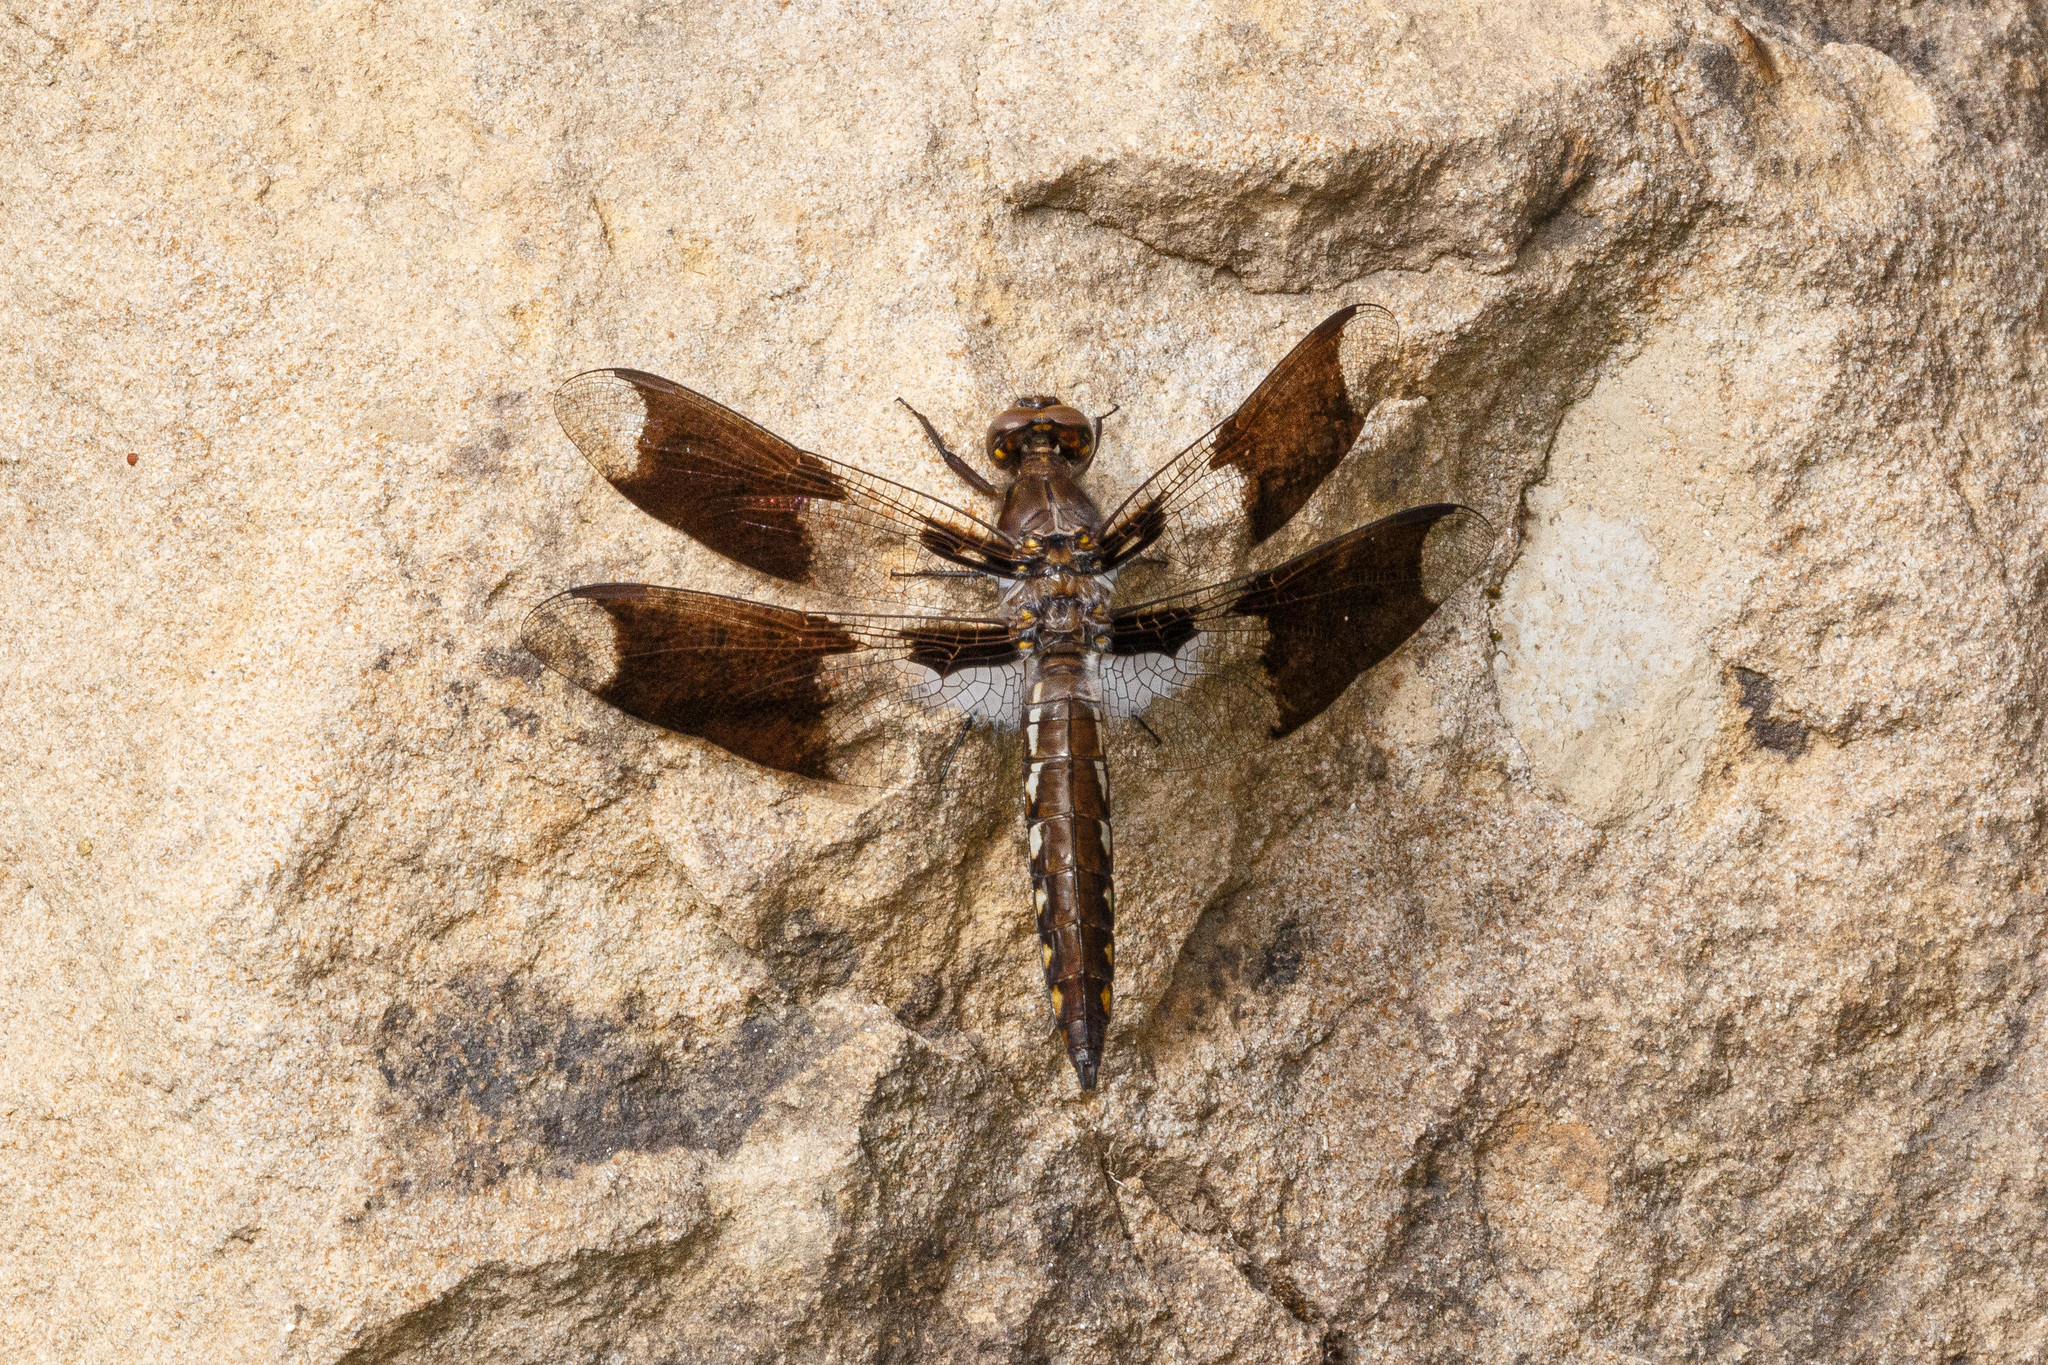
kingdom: Animalia
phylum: Arthropoda
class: Insecta
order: Odonata
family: Libellulidae
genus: Plathemis
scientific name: Plathemis lydia
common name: Common whitetail
